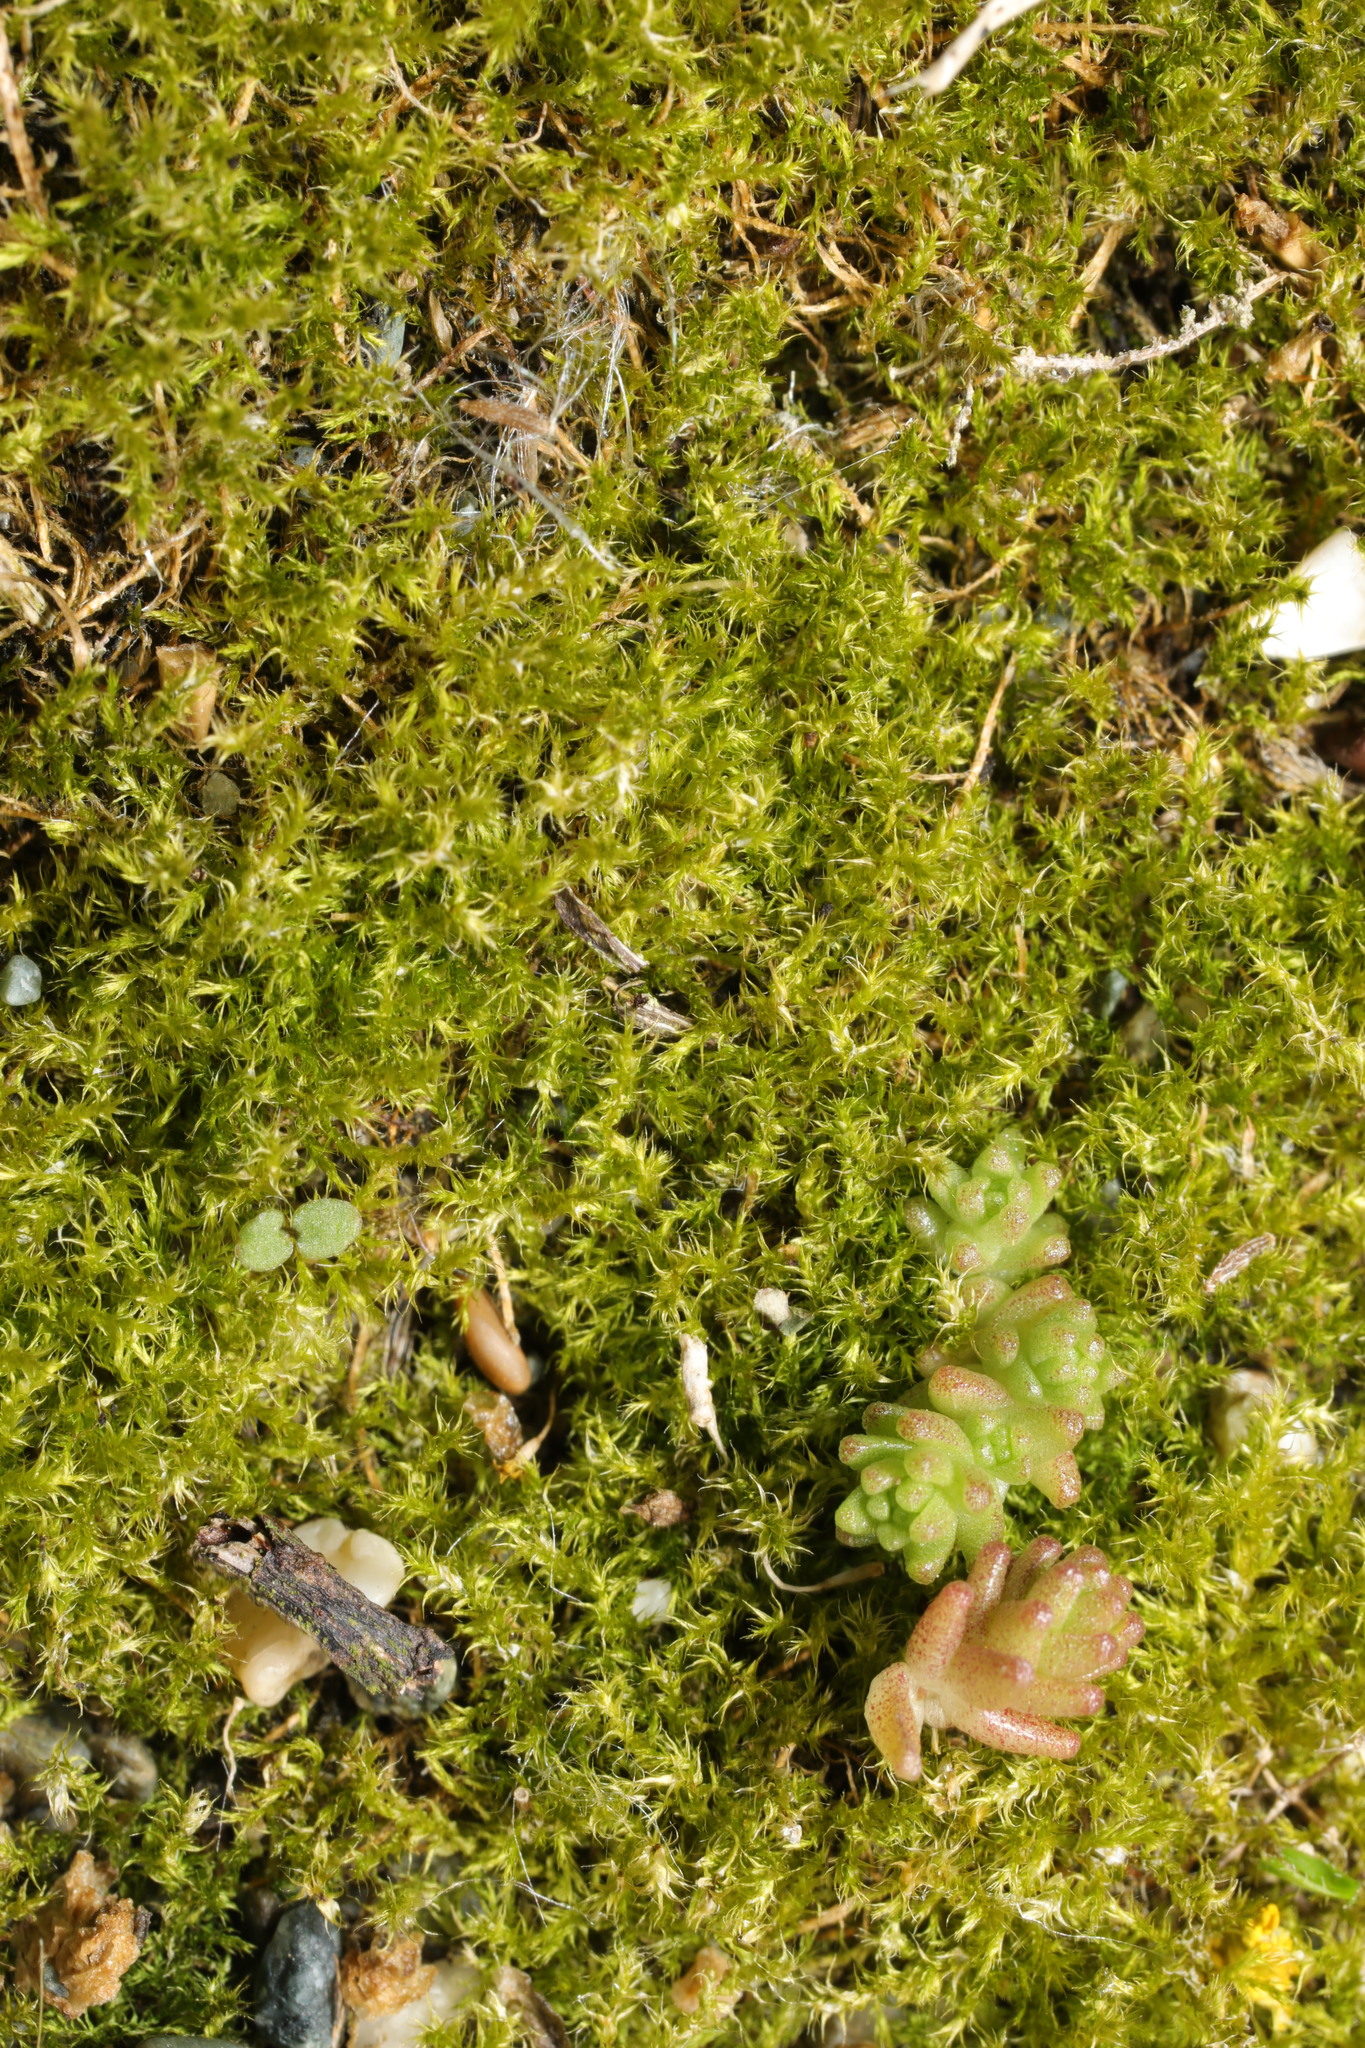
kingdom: Plantae
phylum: Tracheophyta
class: Magnoliopsida
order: Saxifragales
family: Crassulaceae
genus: Sedum
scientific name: Sedum acre
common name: Biting stonecrop
